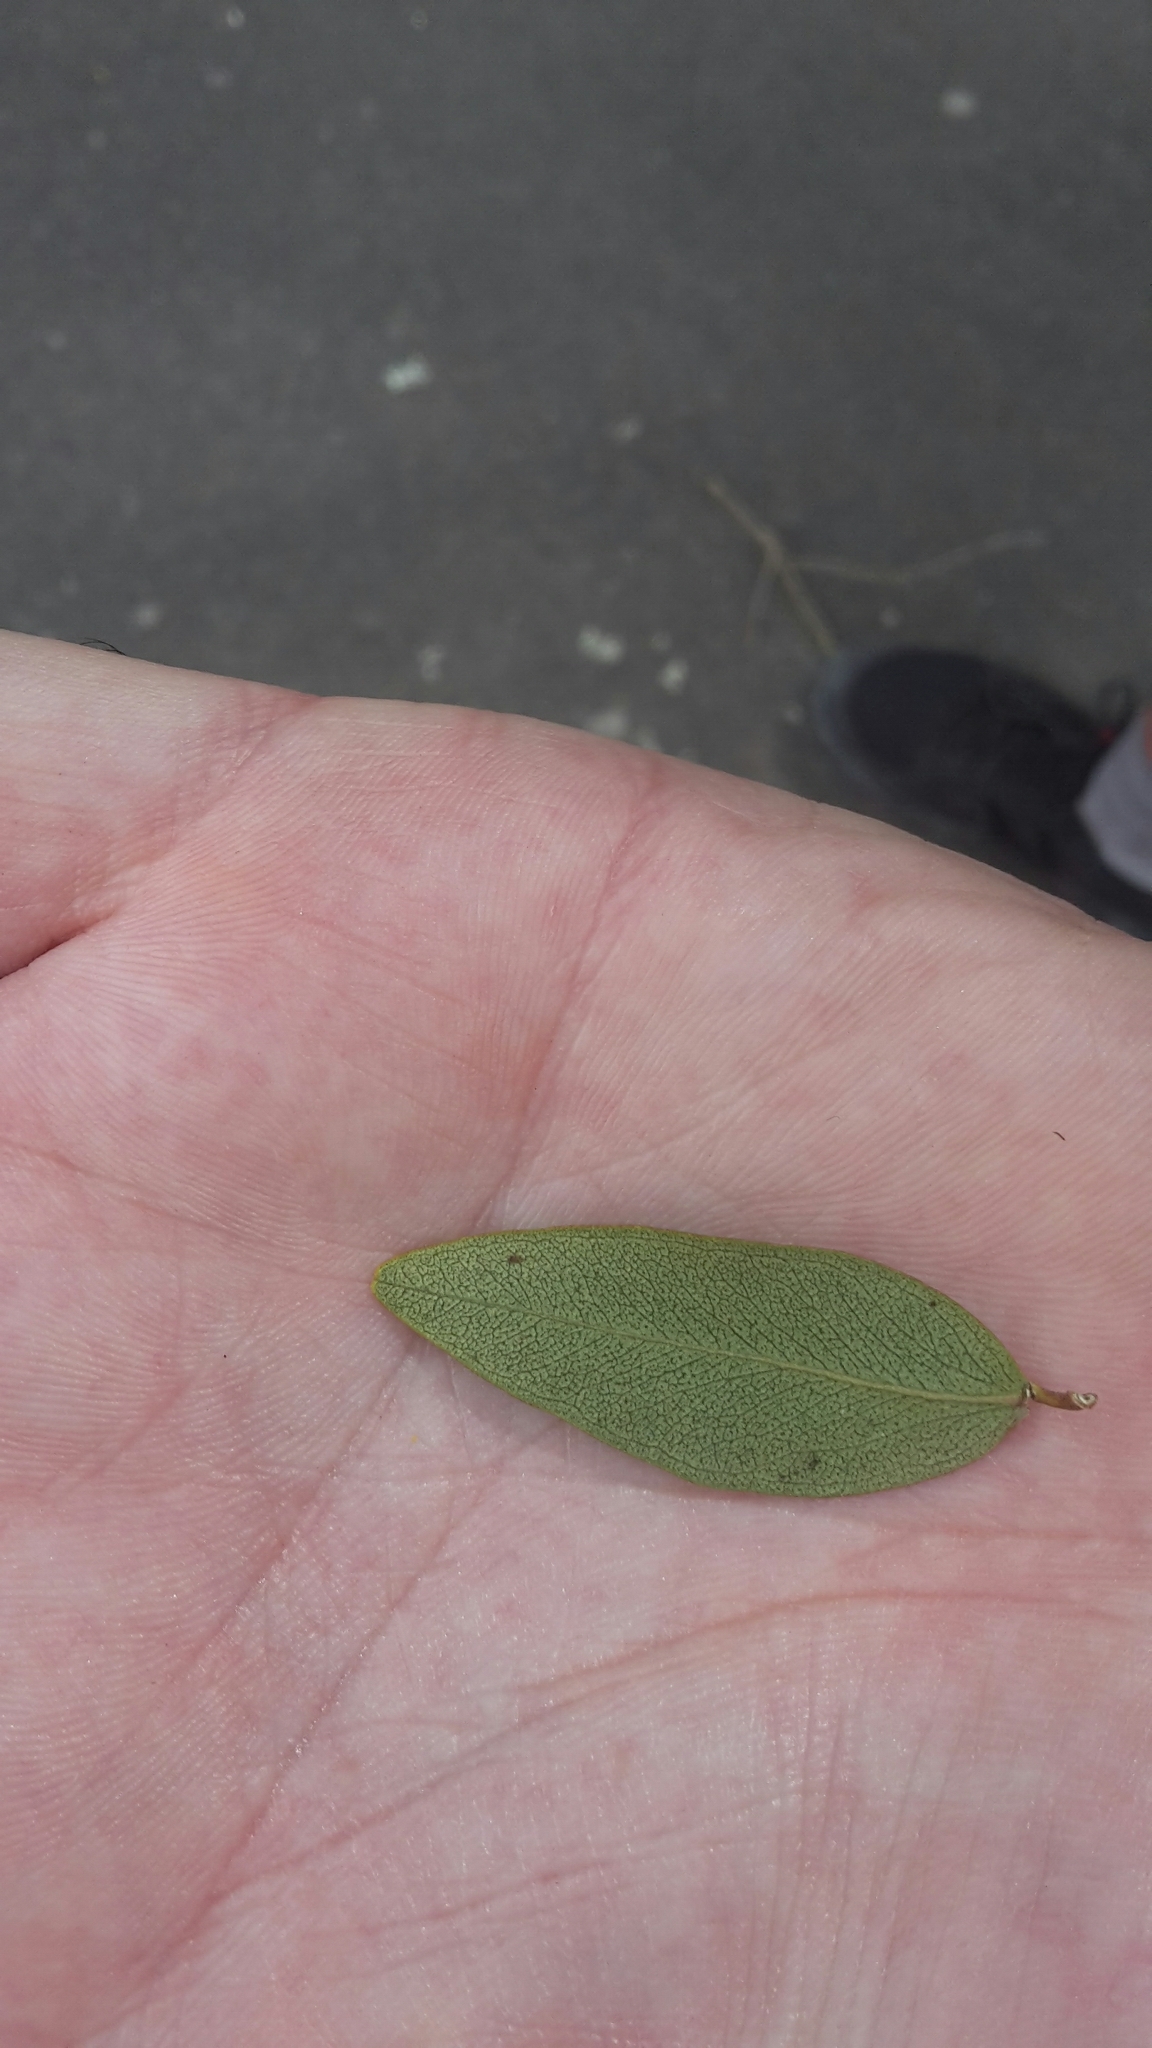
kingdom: Plantae
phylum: Tracheophyta
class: Magnoliopsida
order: Myrtales
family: Myrtaceae
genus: Metrosideros
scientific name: Metrosideros robusta
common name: Northern rata
